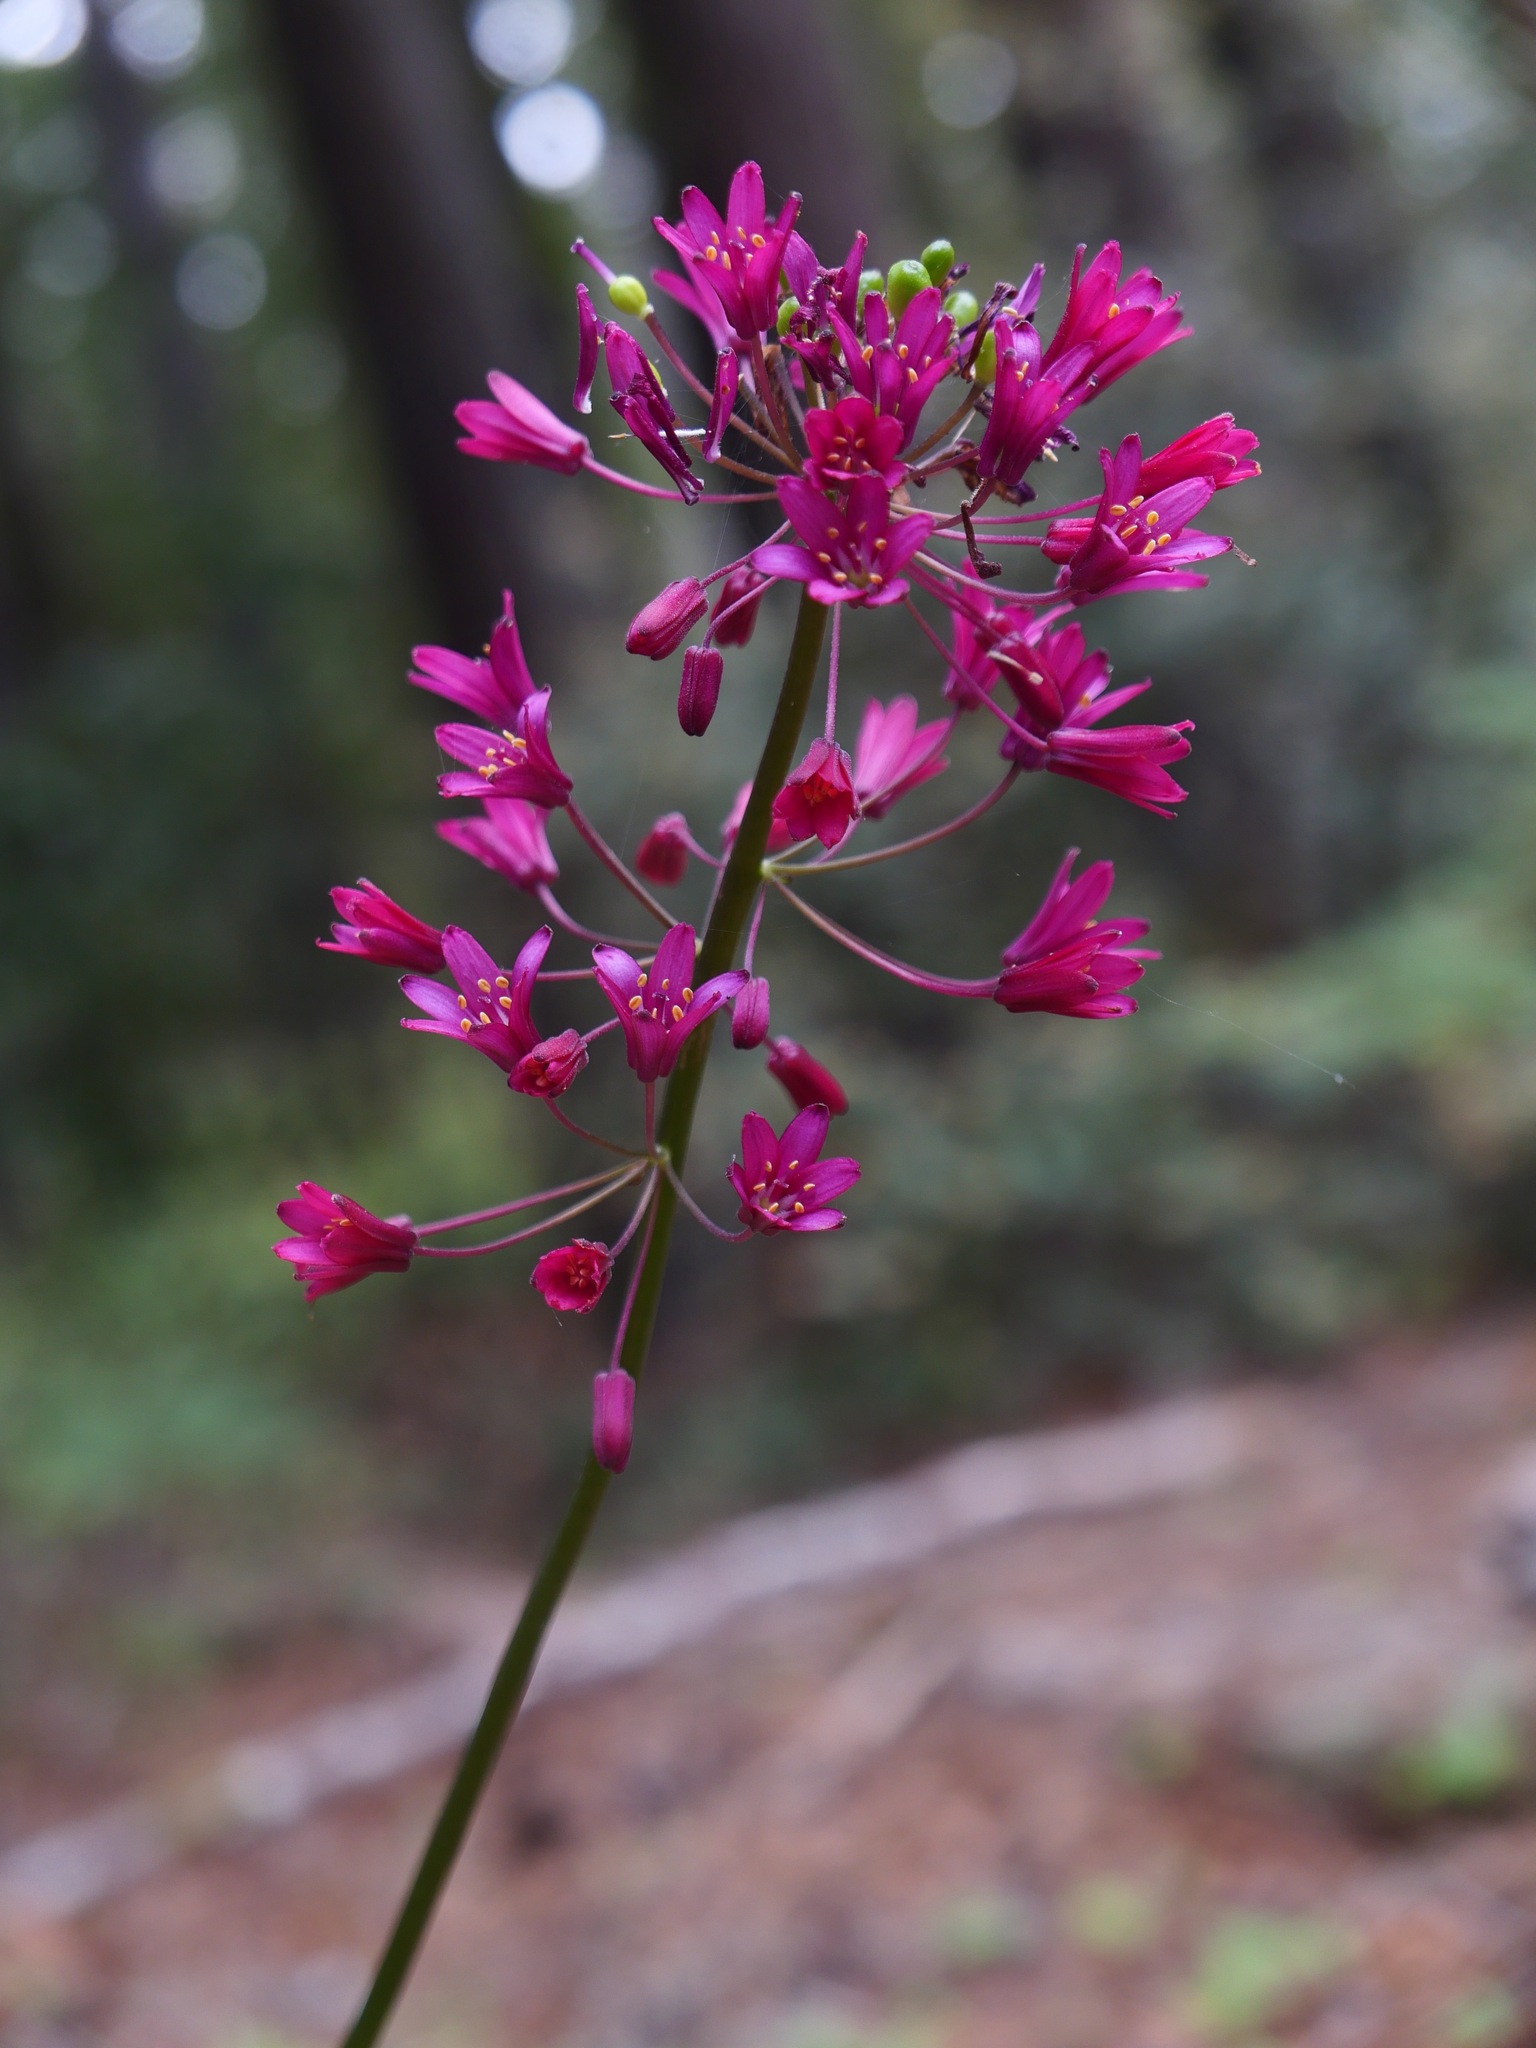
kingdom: Plantae
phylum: Tracheophyta
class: Liliopsida
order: Liliales
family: Liliaceae
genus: Clintonia
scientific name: Clintonia andrewsiana
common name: Red clintonia
